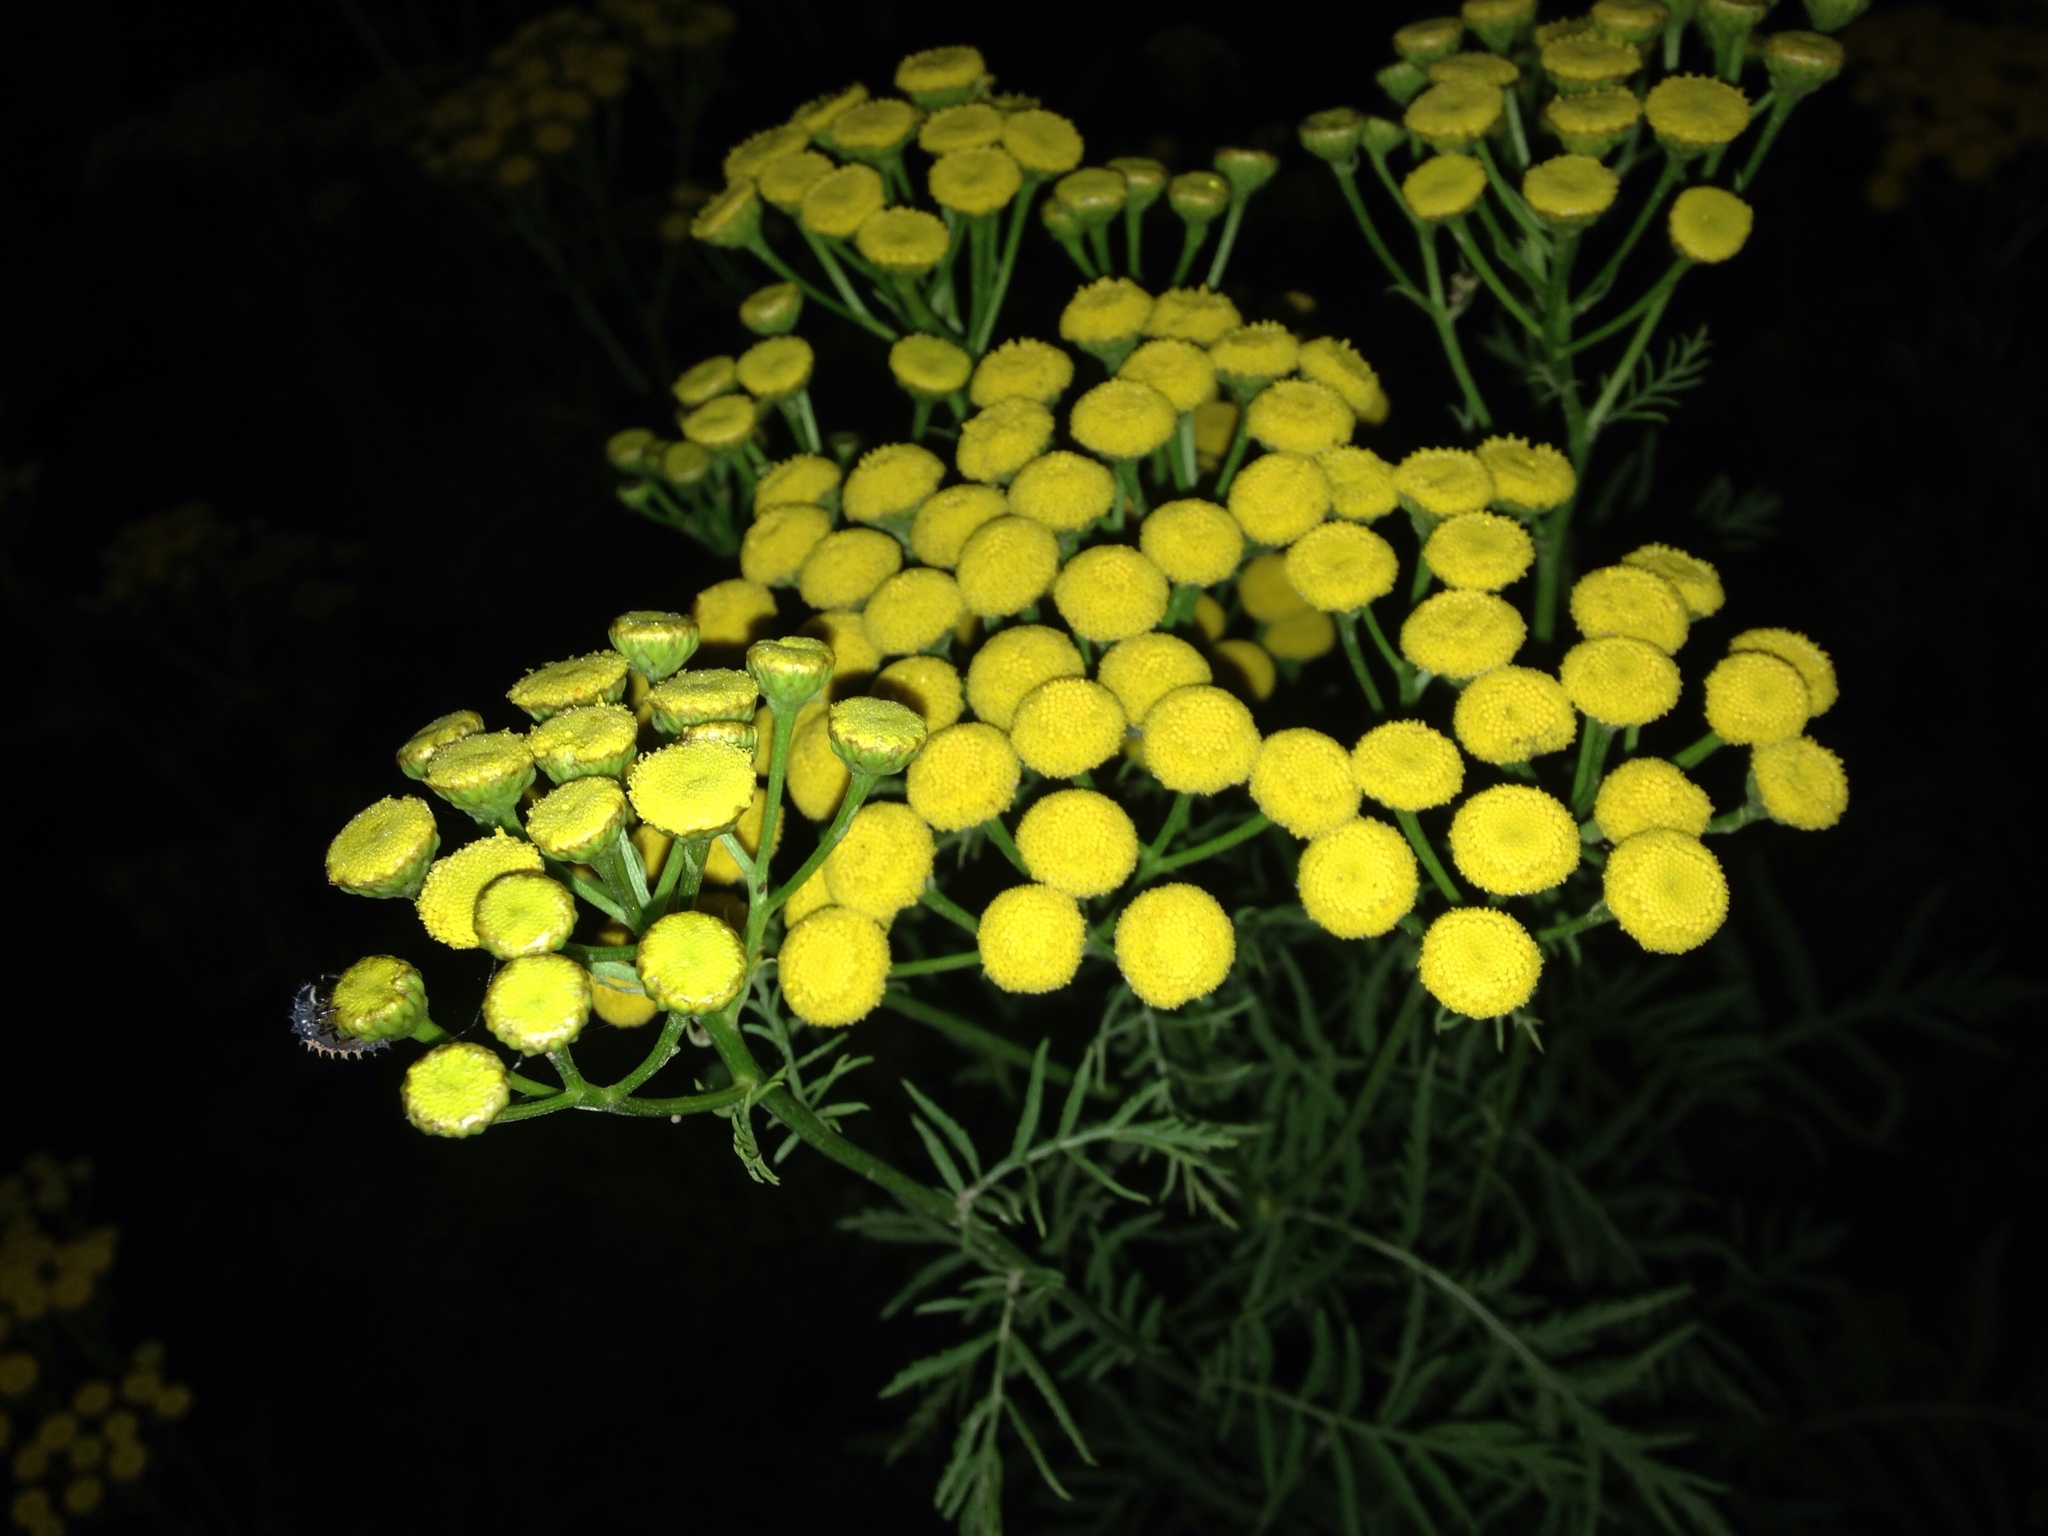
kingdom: Plantae
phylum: Tracheophyta
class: Magnoliopsida
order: Asterales
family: Asteraceae
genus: Tanacetum
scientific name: Tanacetum vulgare
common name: Common tansy
